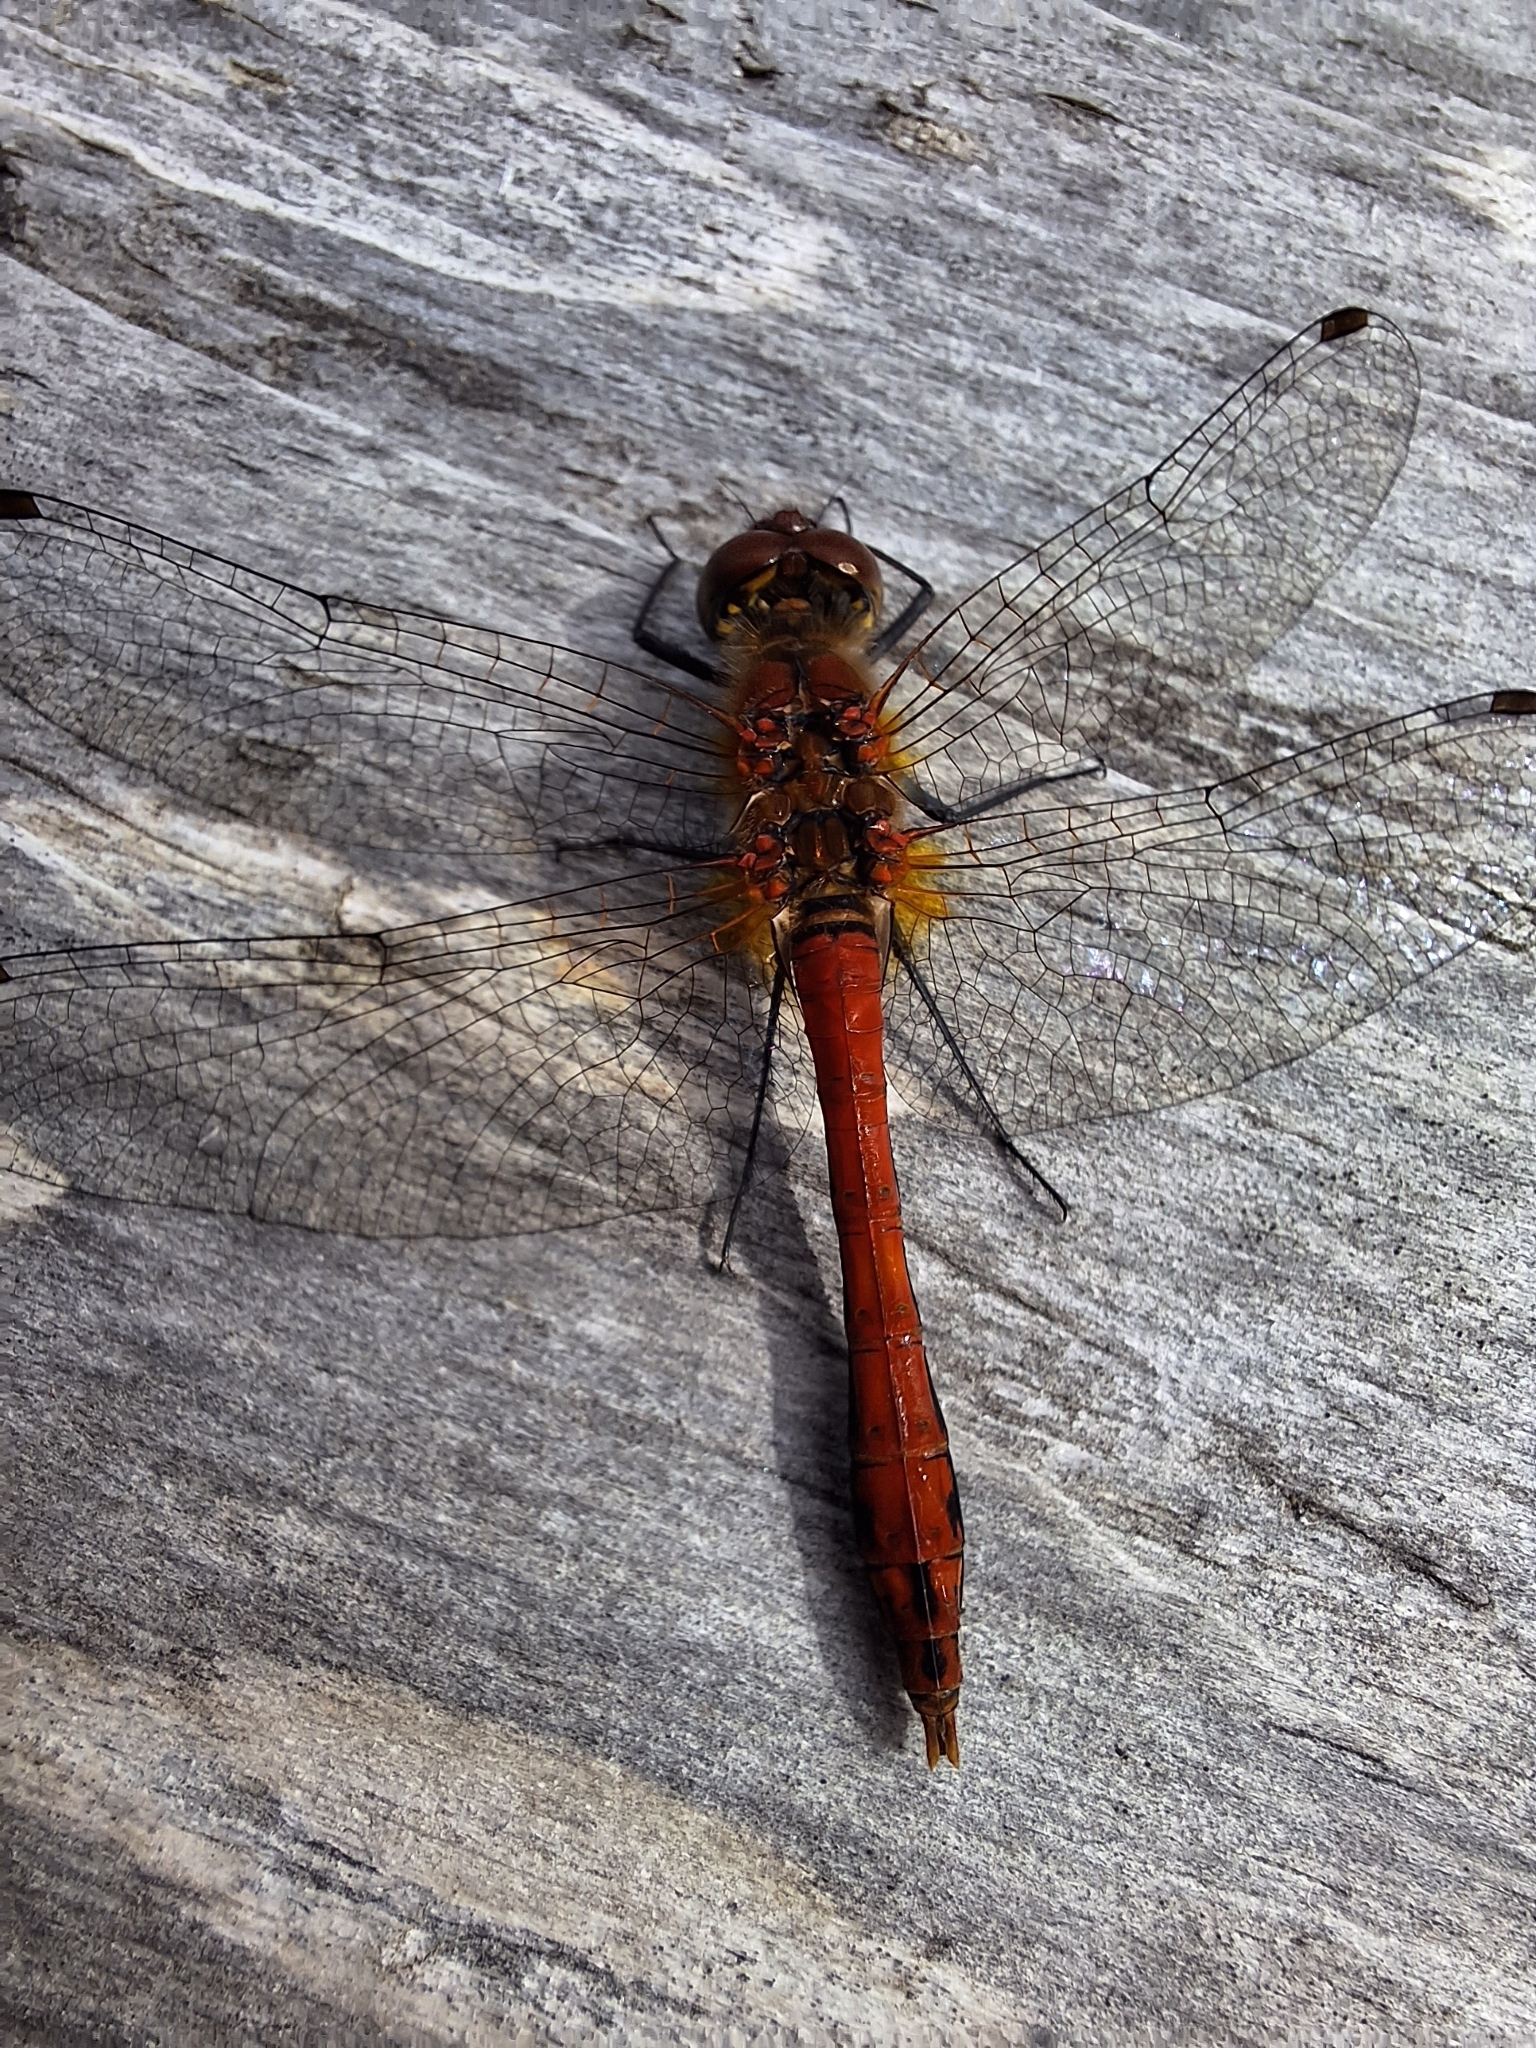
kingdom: Animalia
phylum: Arthropoda
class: Insecta
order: Odonata
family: Libellulidae
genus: Sympetrum
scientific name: Sympetrum sanguineum
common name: Ruddy darter
